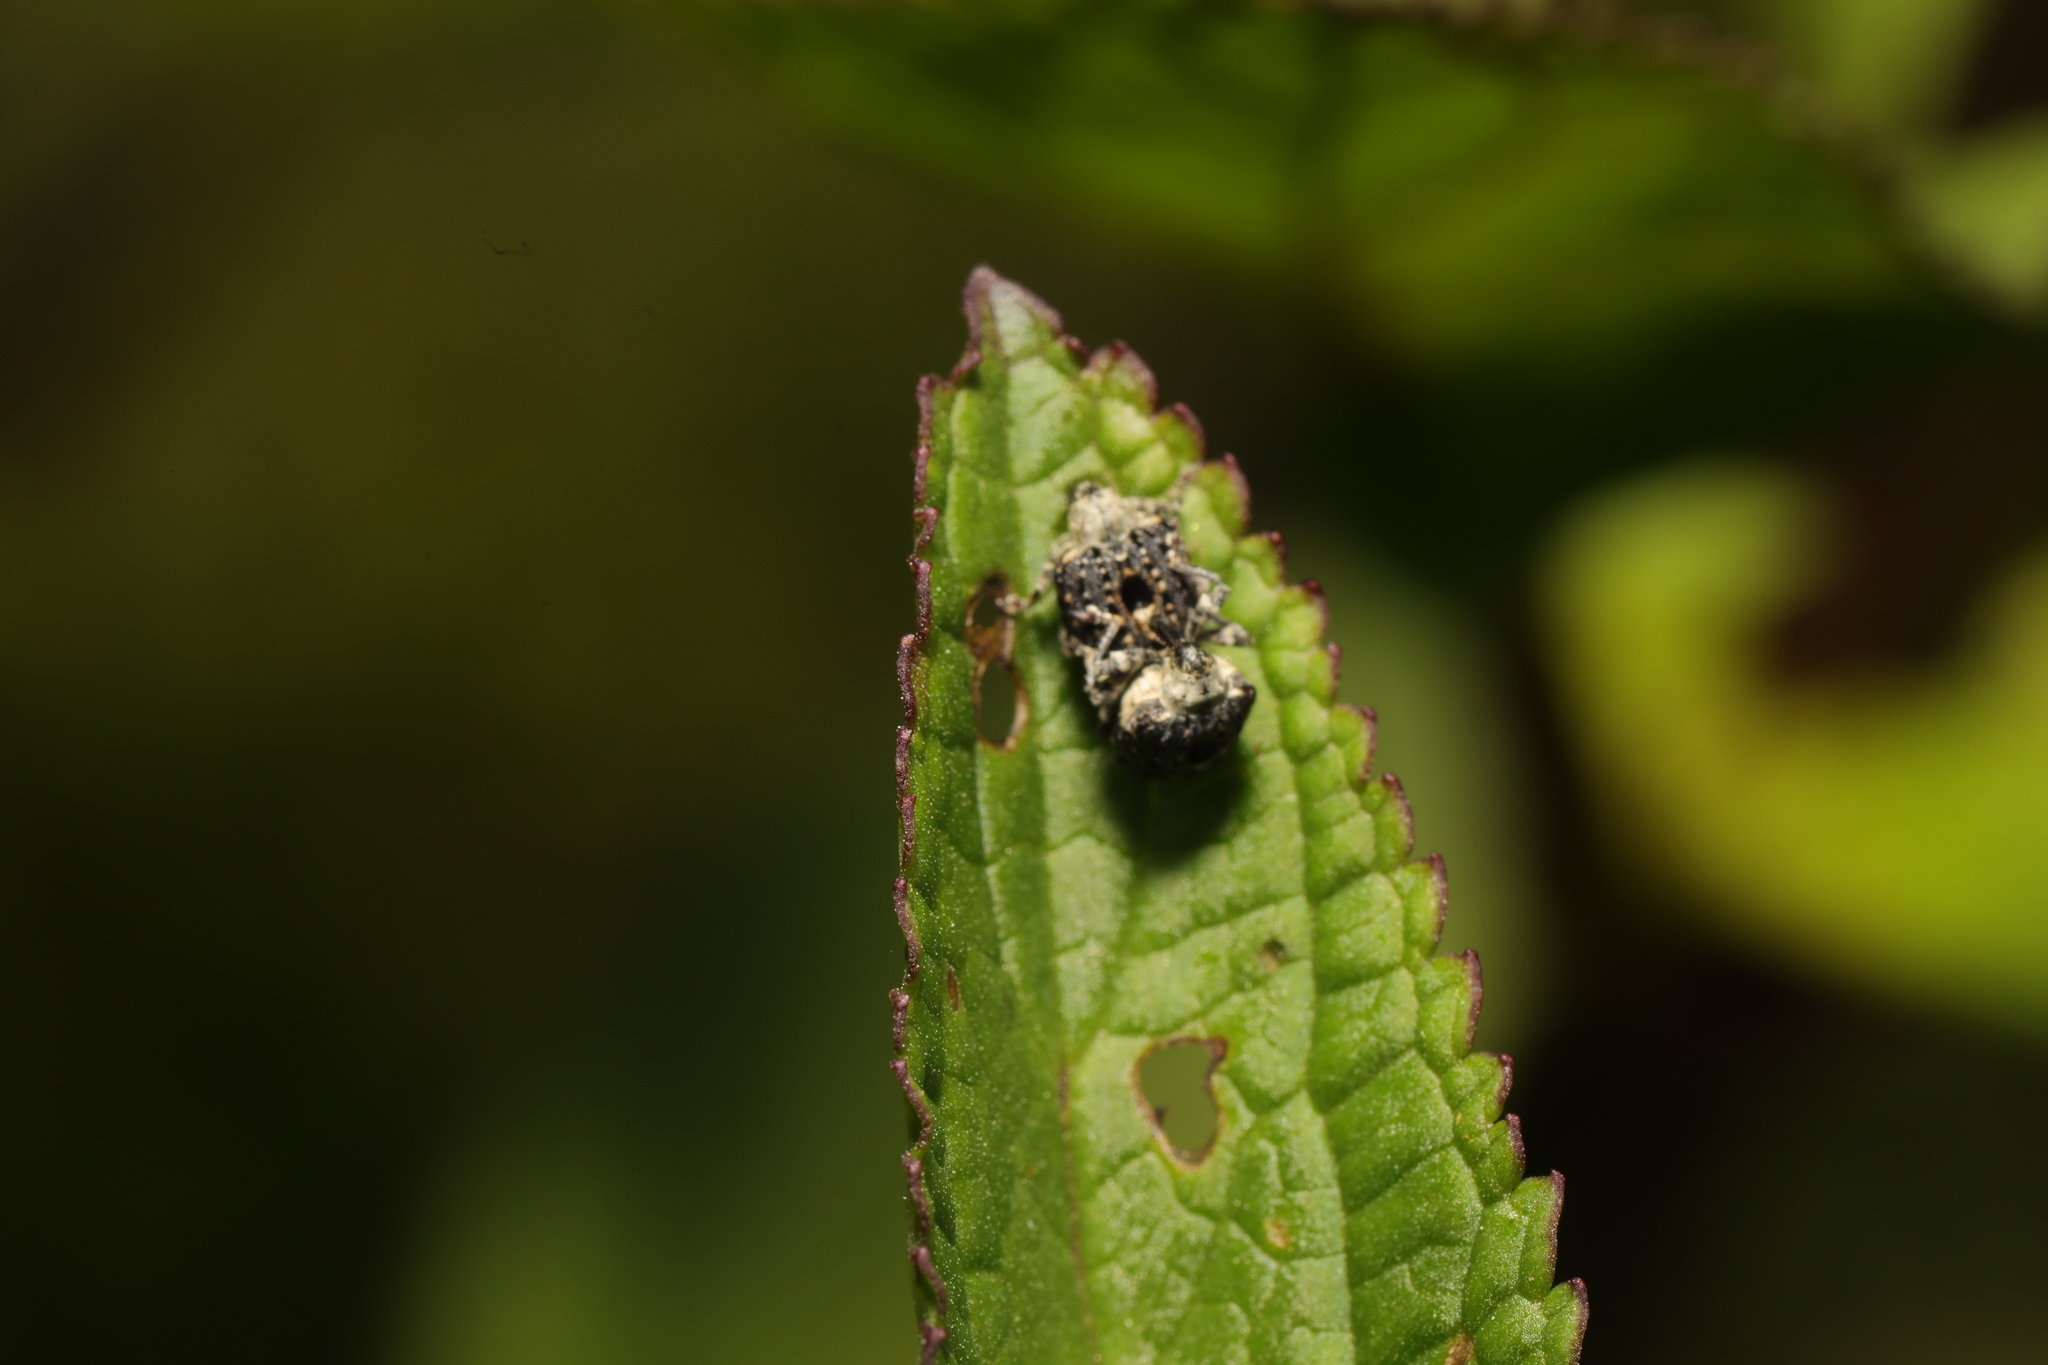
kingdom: Animalia
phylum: Arthropoda
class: Insecta
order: Coleoptera
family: Curculionidae
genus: Cionus
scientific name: Cionus scrophulariae
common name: Common figwort weevil
